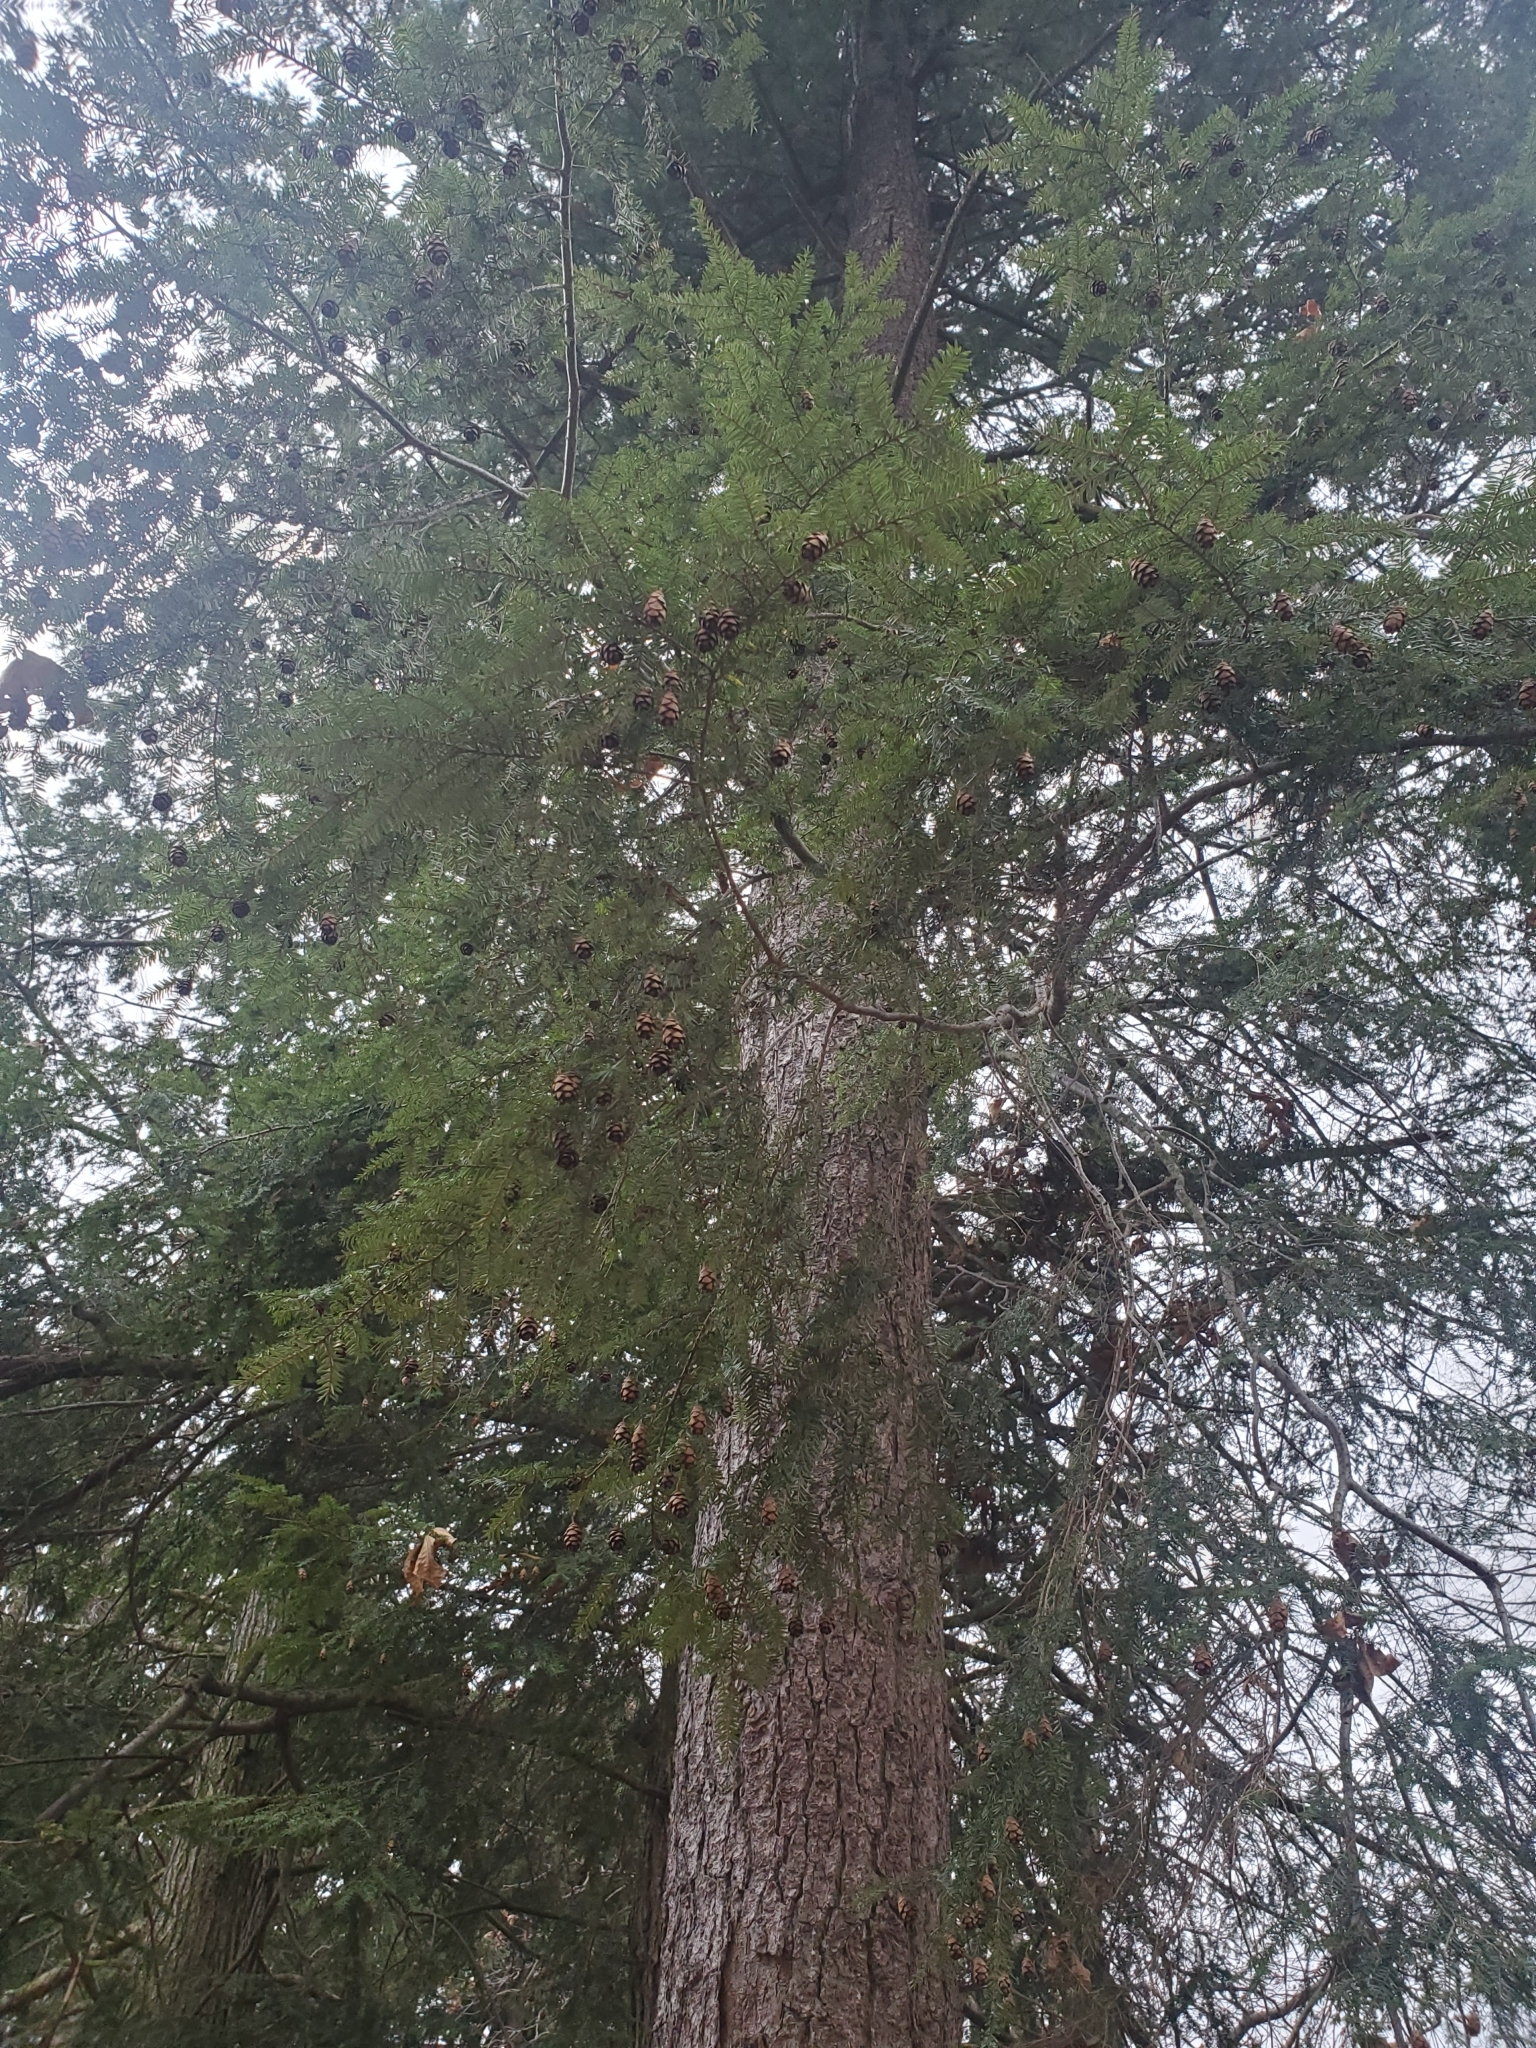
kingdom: Plantae
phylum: Tracheophyta
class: Pinopsida
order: Pinales
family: Pinaceae
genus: Tsuga
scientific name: Tsuga canadensis
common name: Eastern hemlock
